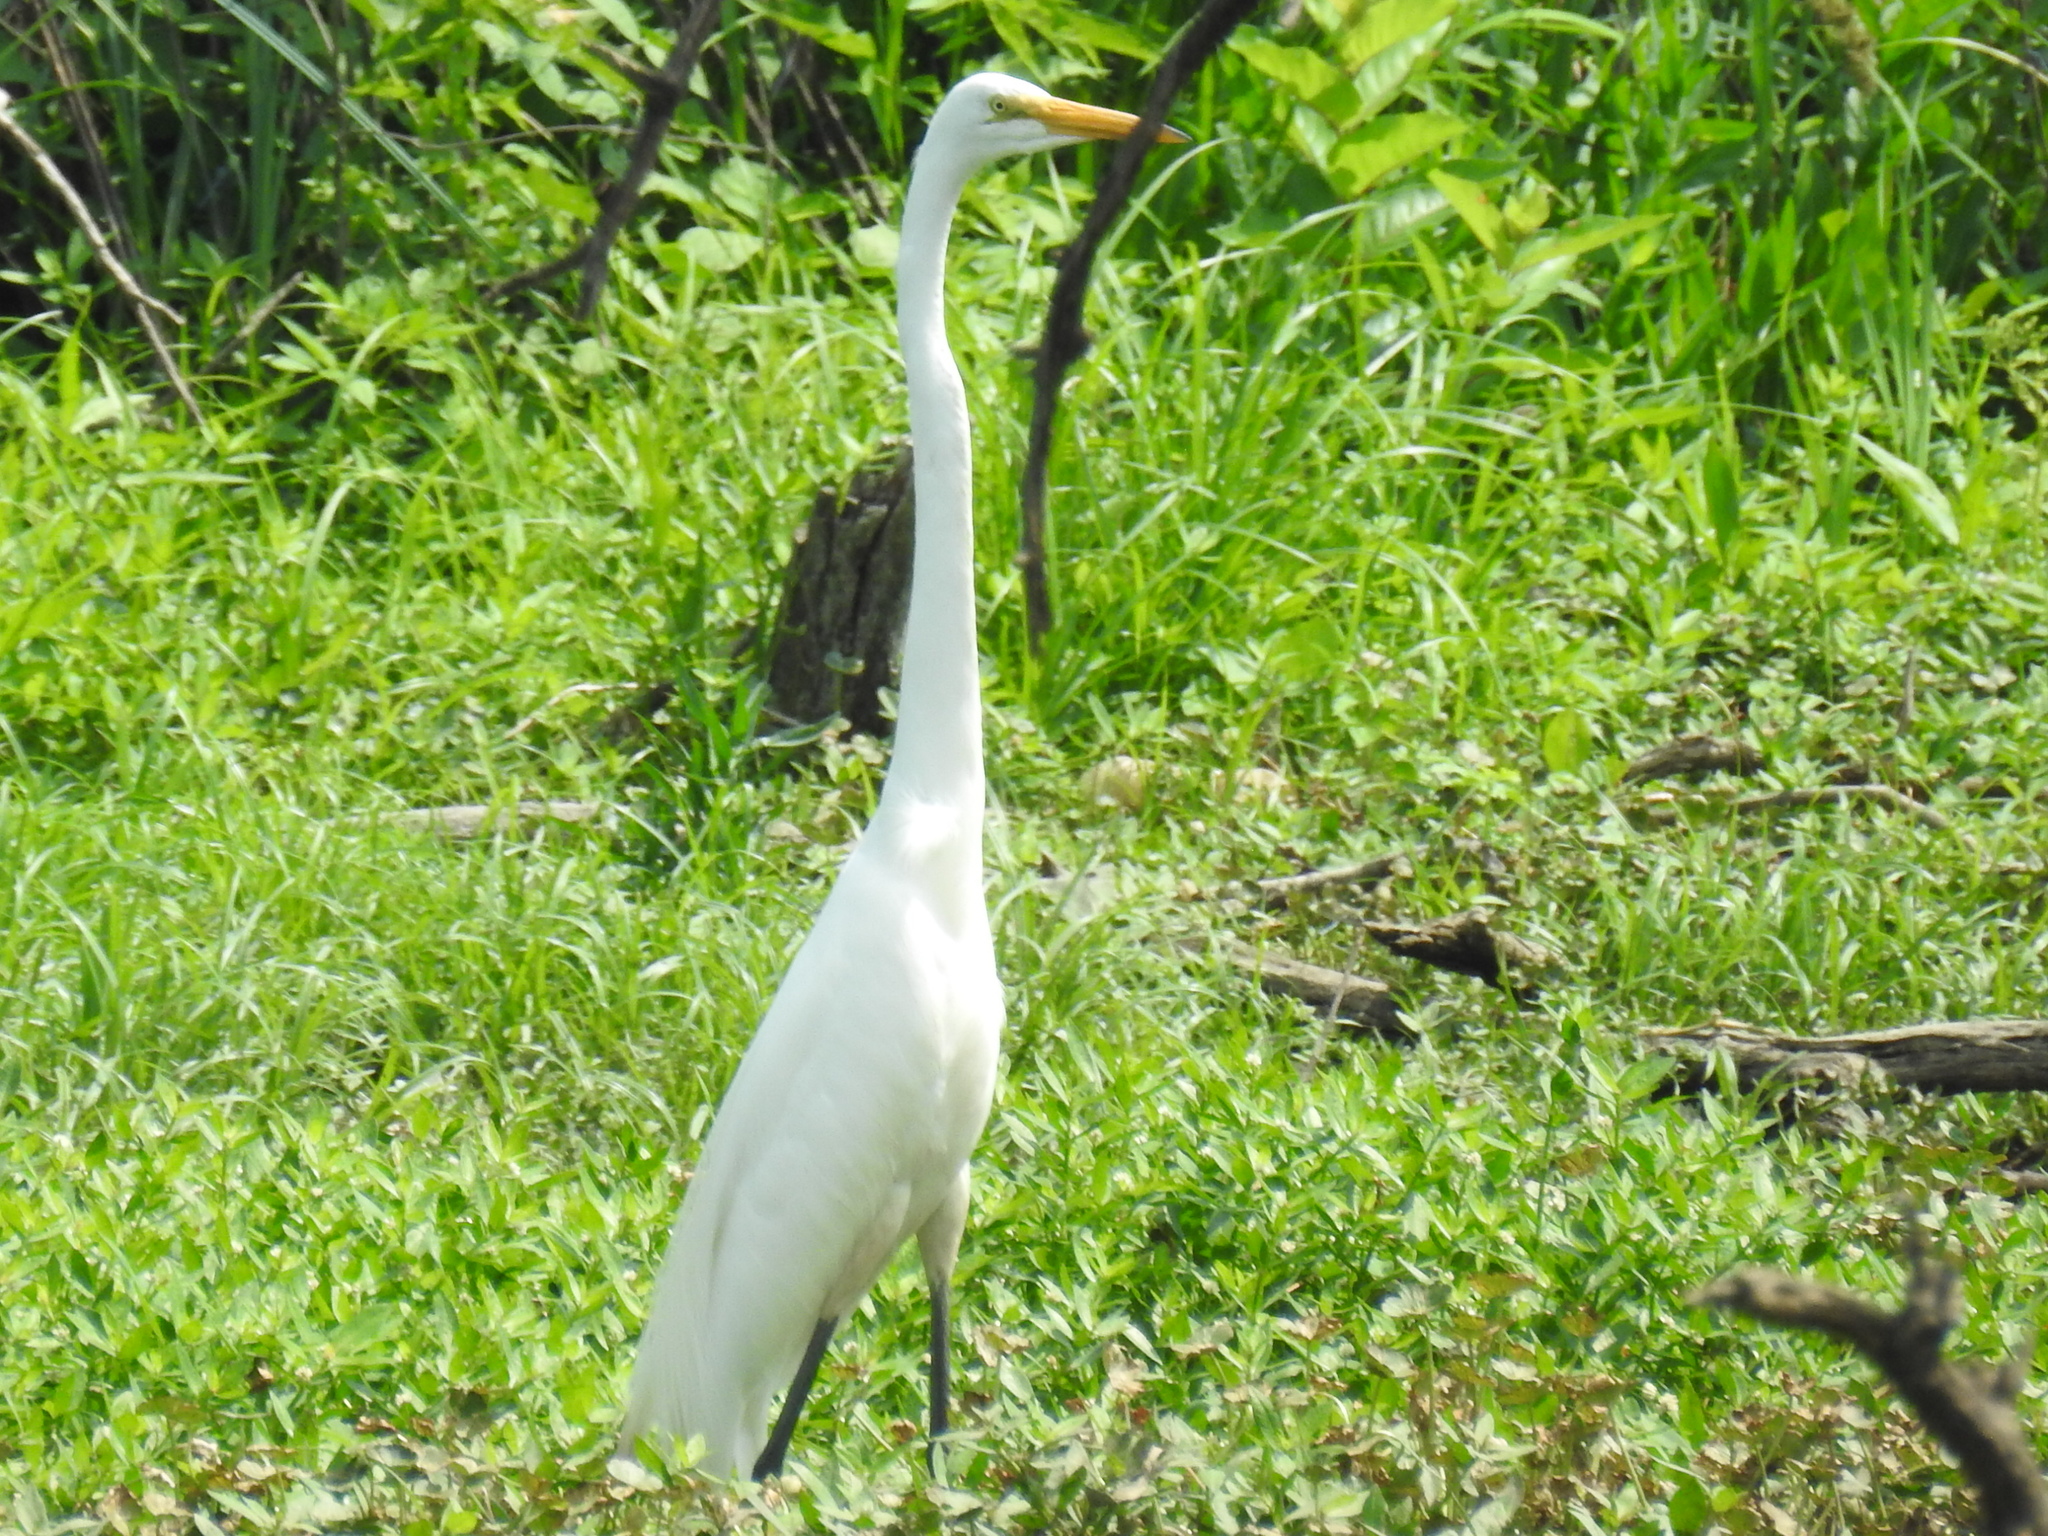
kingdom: Animalia
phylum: Chordata
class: Aves
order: Pelecaniformes
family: Ardeidae
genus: Ardea
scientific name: Ardea alba
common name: Great egret
